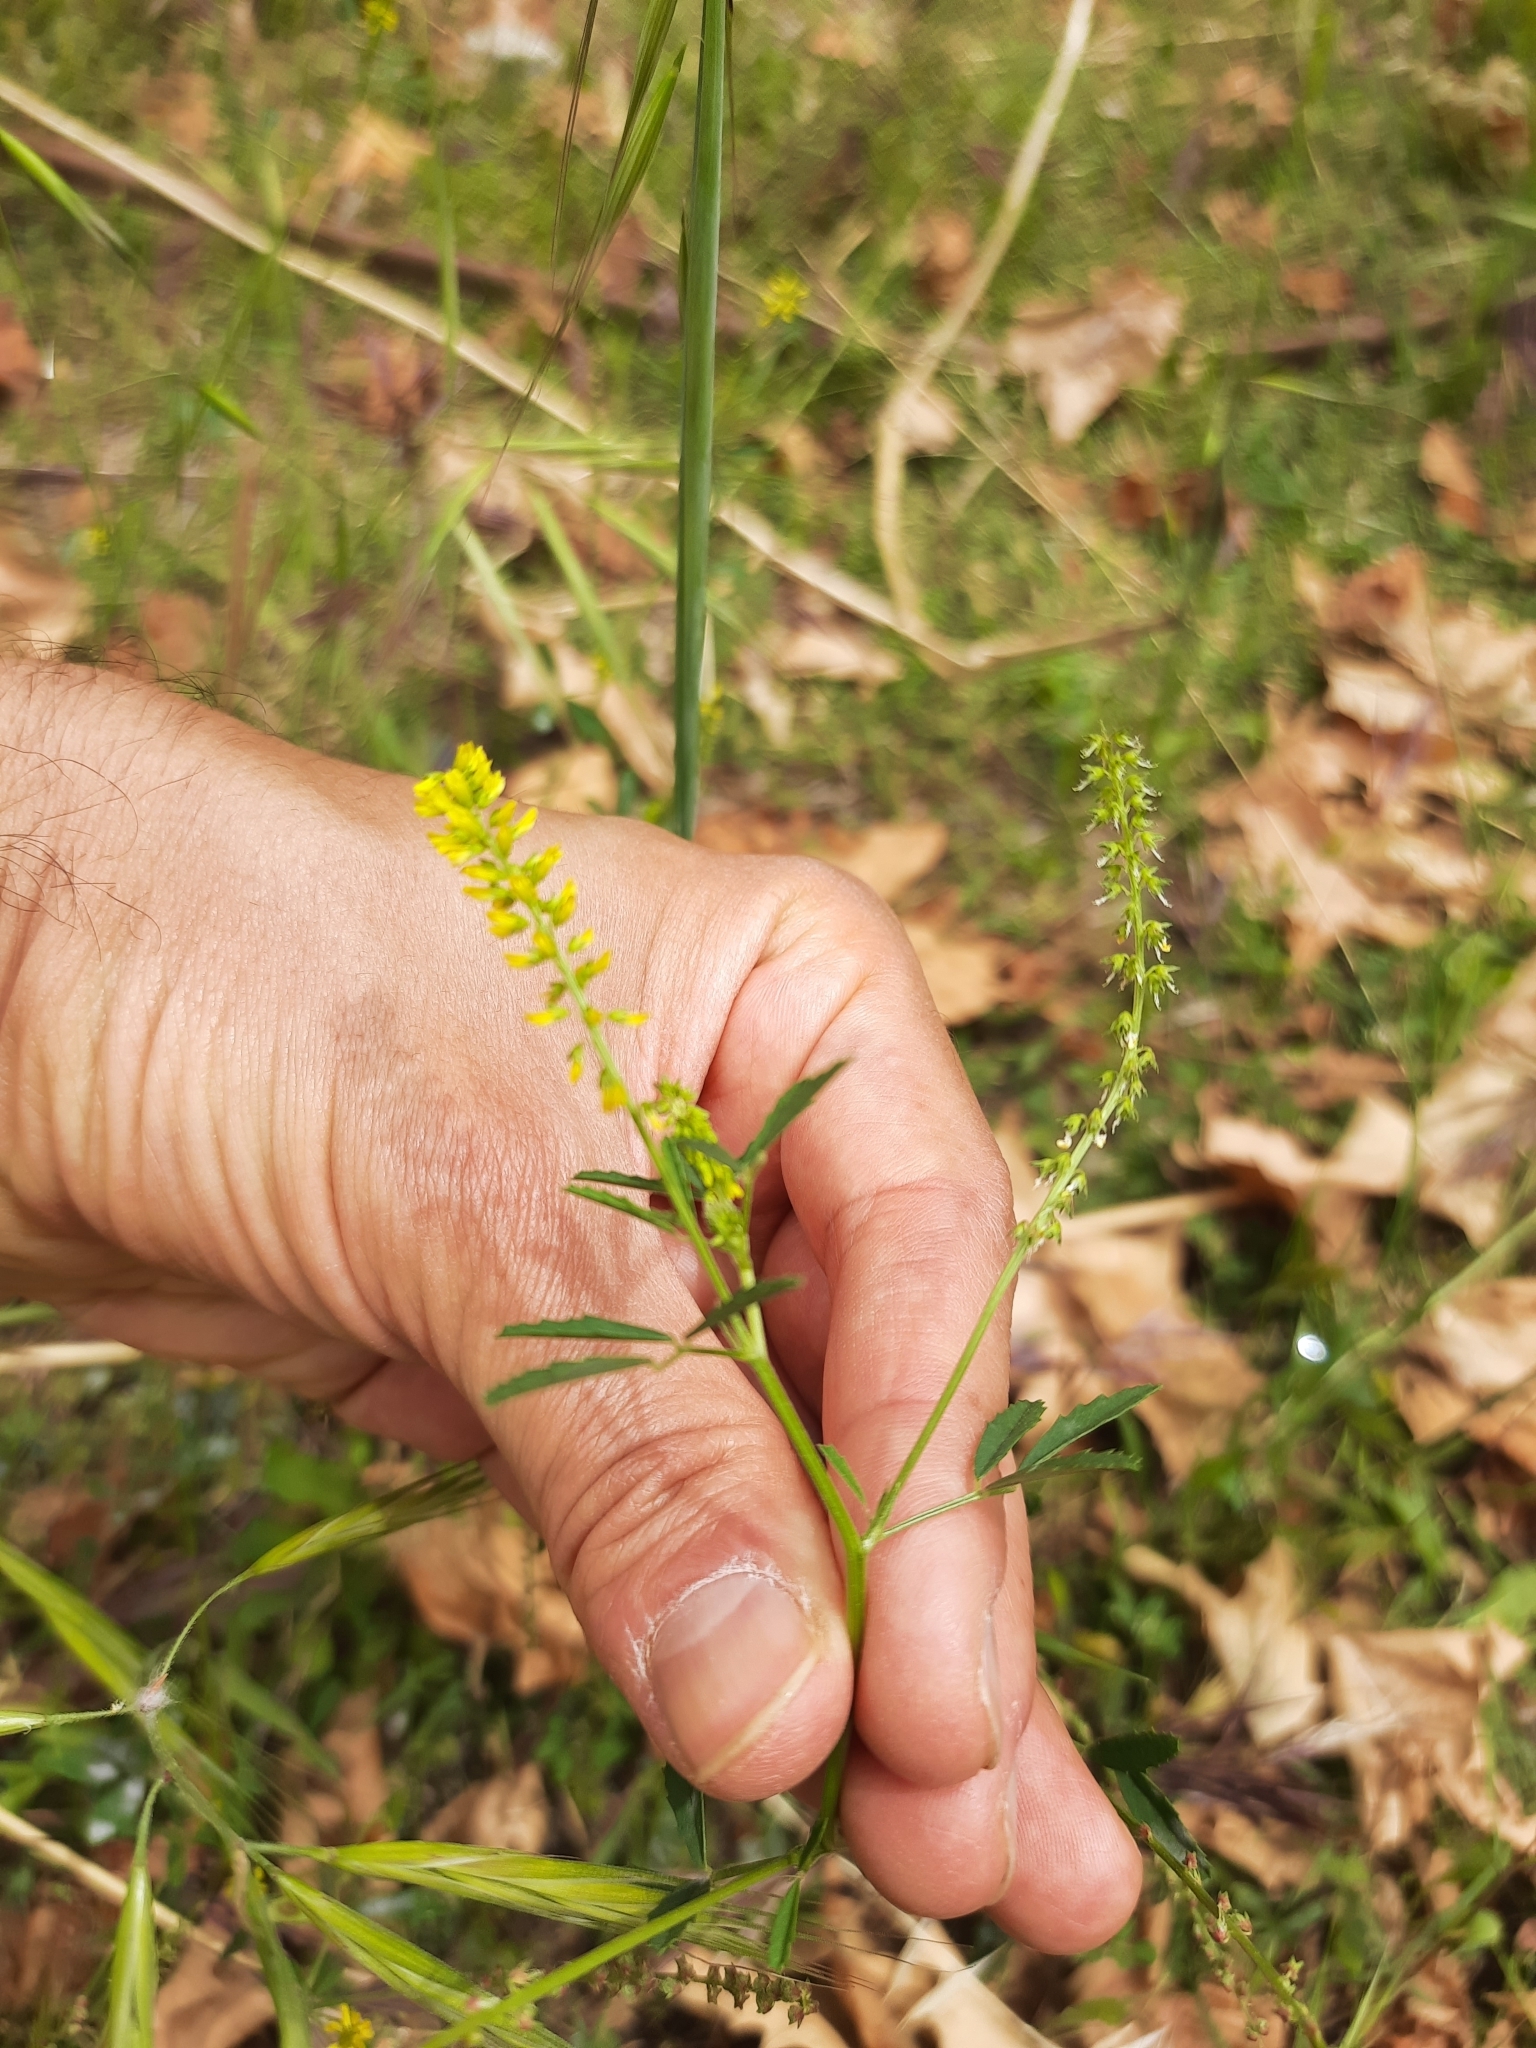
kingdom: Plantae
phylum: Tracheophyta
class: Magnoliopsida
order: Fabales
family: Fabaceae
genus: Melilotus
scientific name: Melilotus indicus
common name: Small melilot
